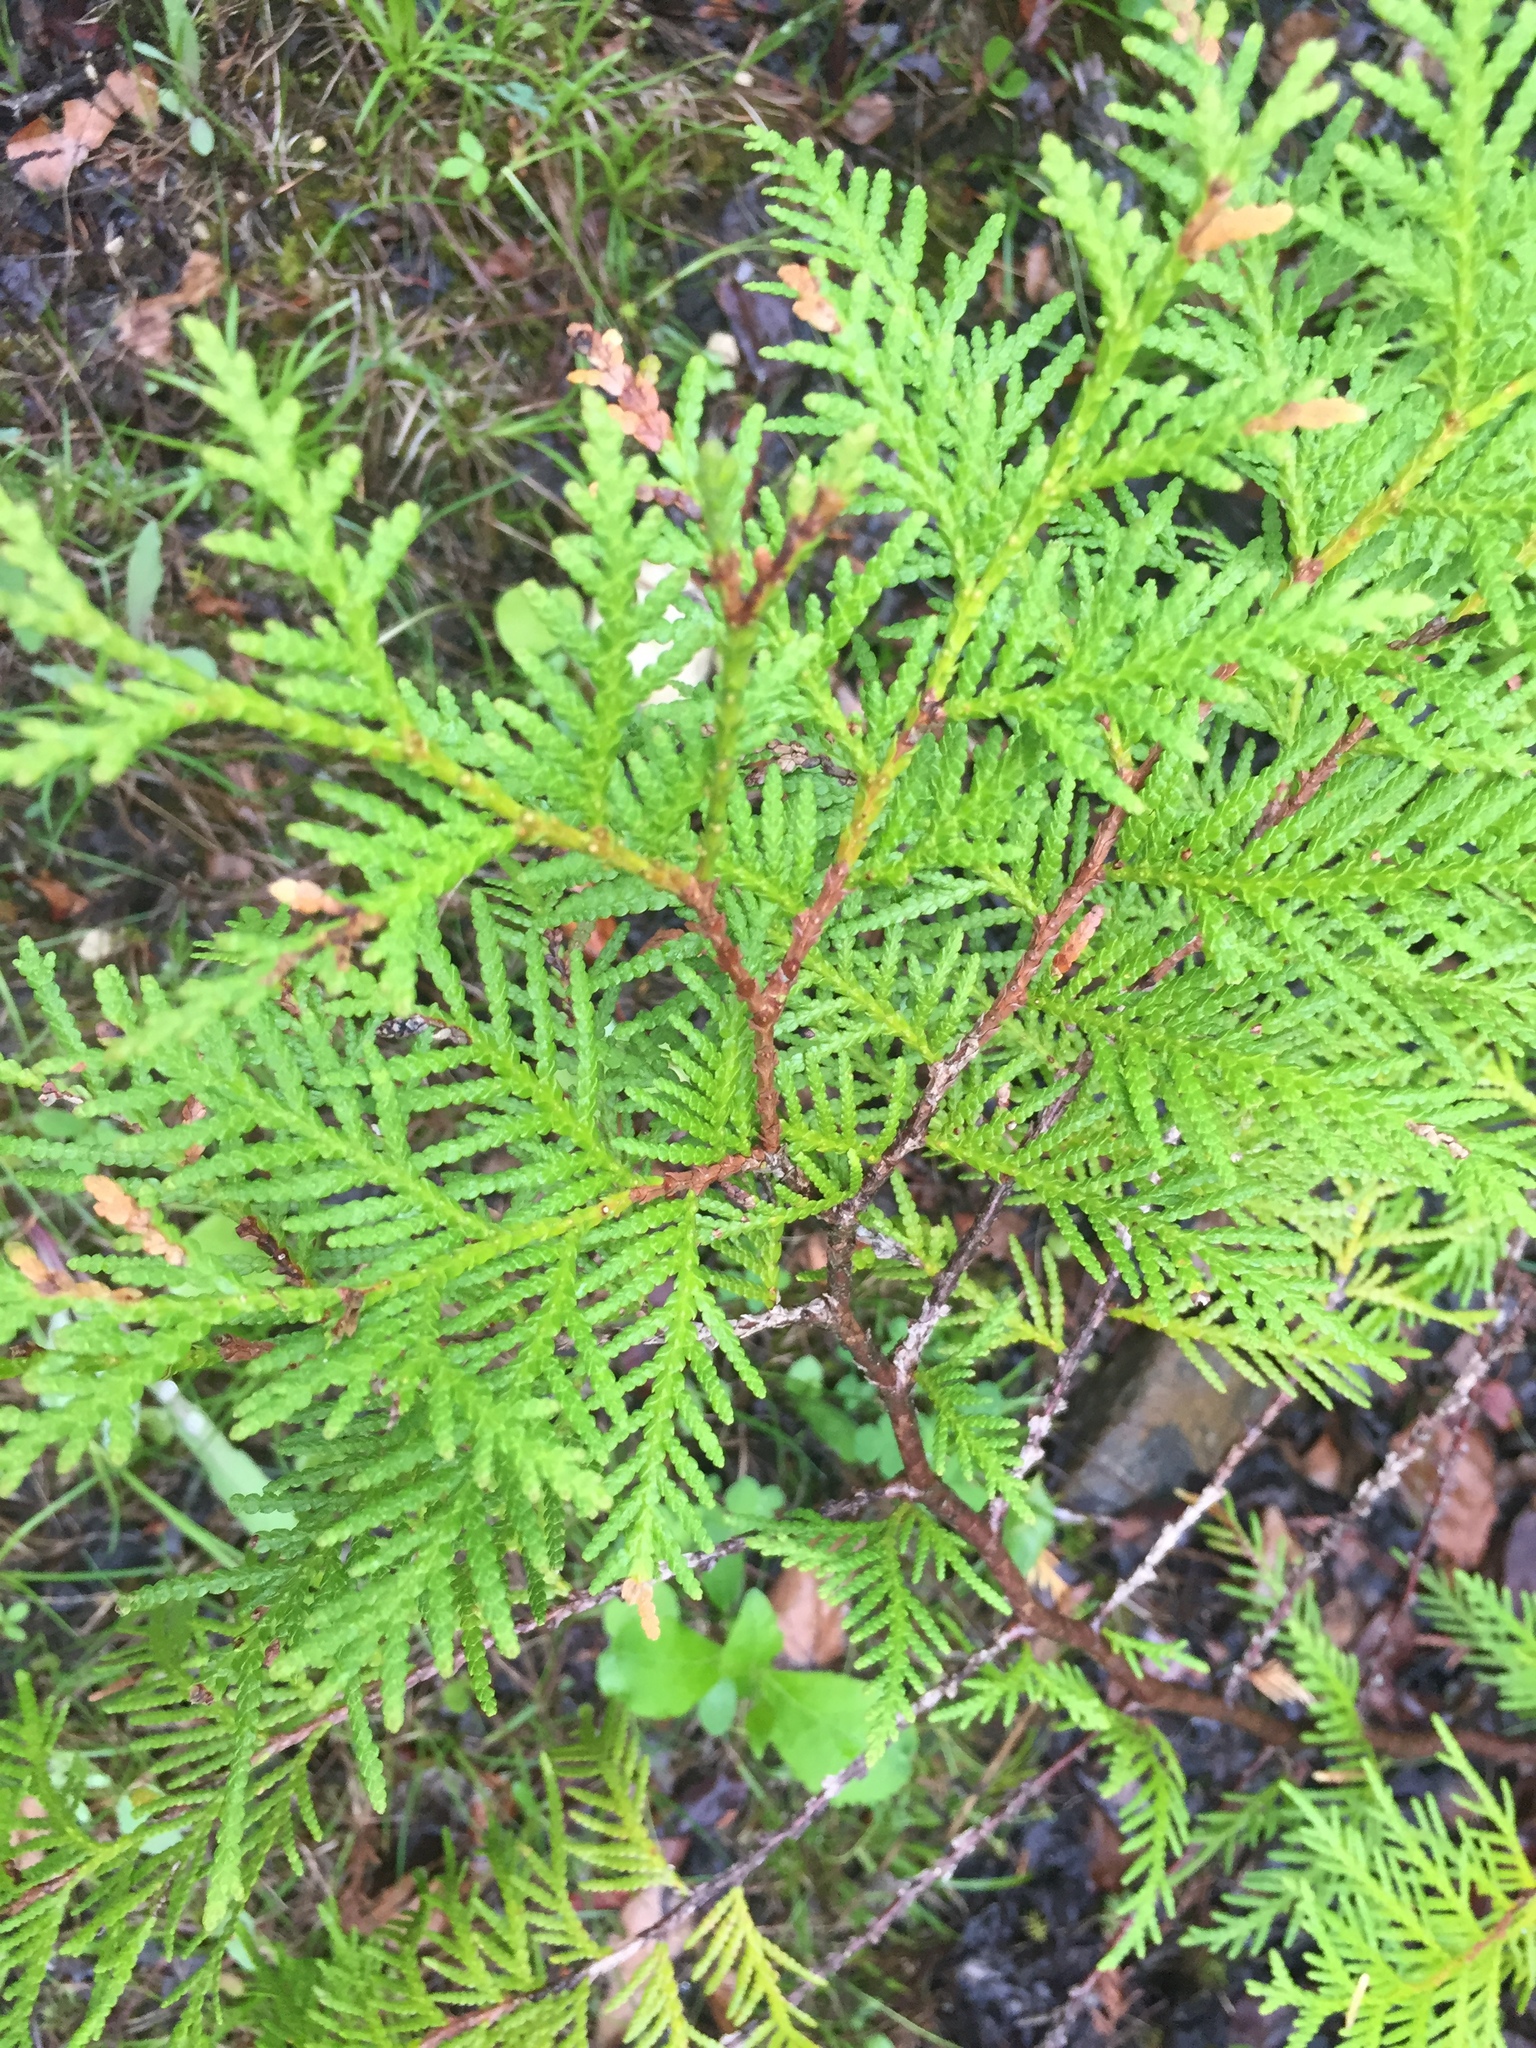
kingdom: Plantae
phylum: Tracheophyta
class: Pinopsida
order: Pinales
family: Cupressaceae
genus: Thuja
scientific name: Thuja occidentalis
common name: Northern white-cedar
